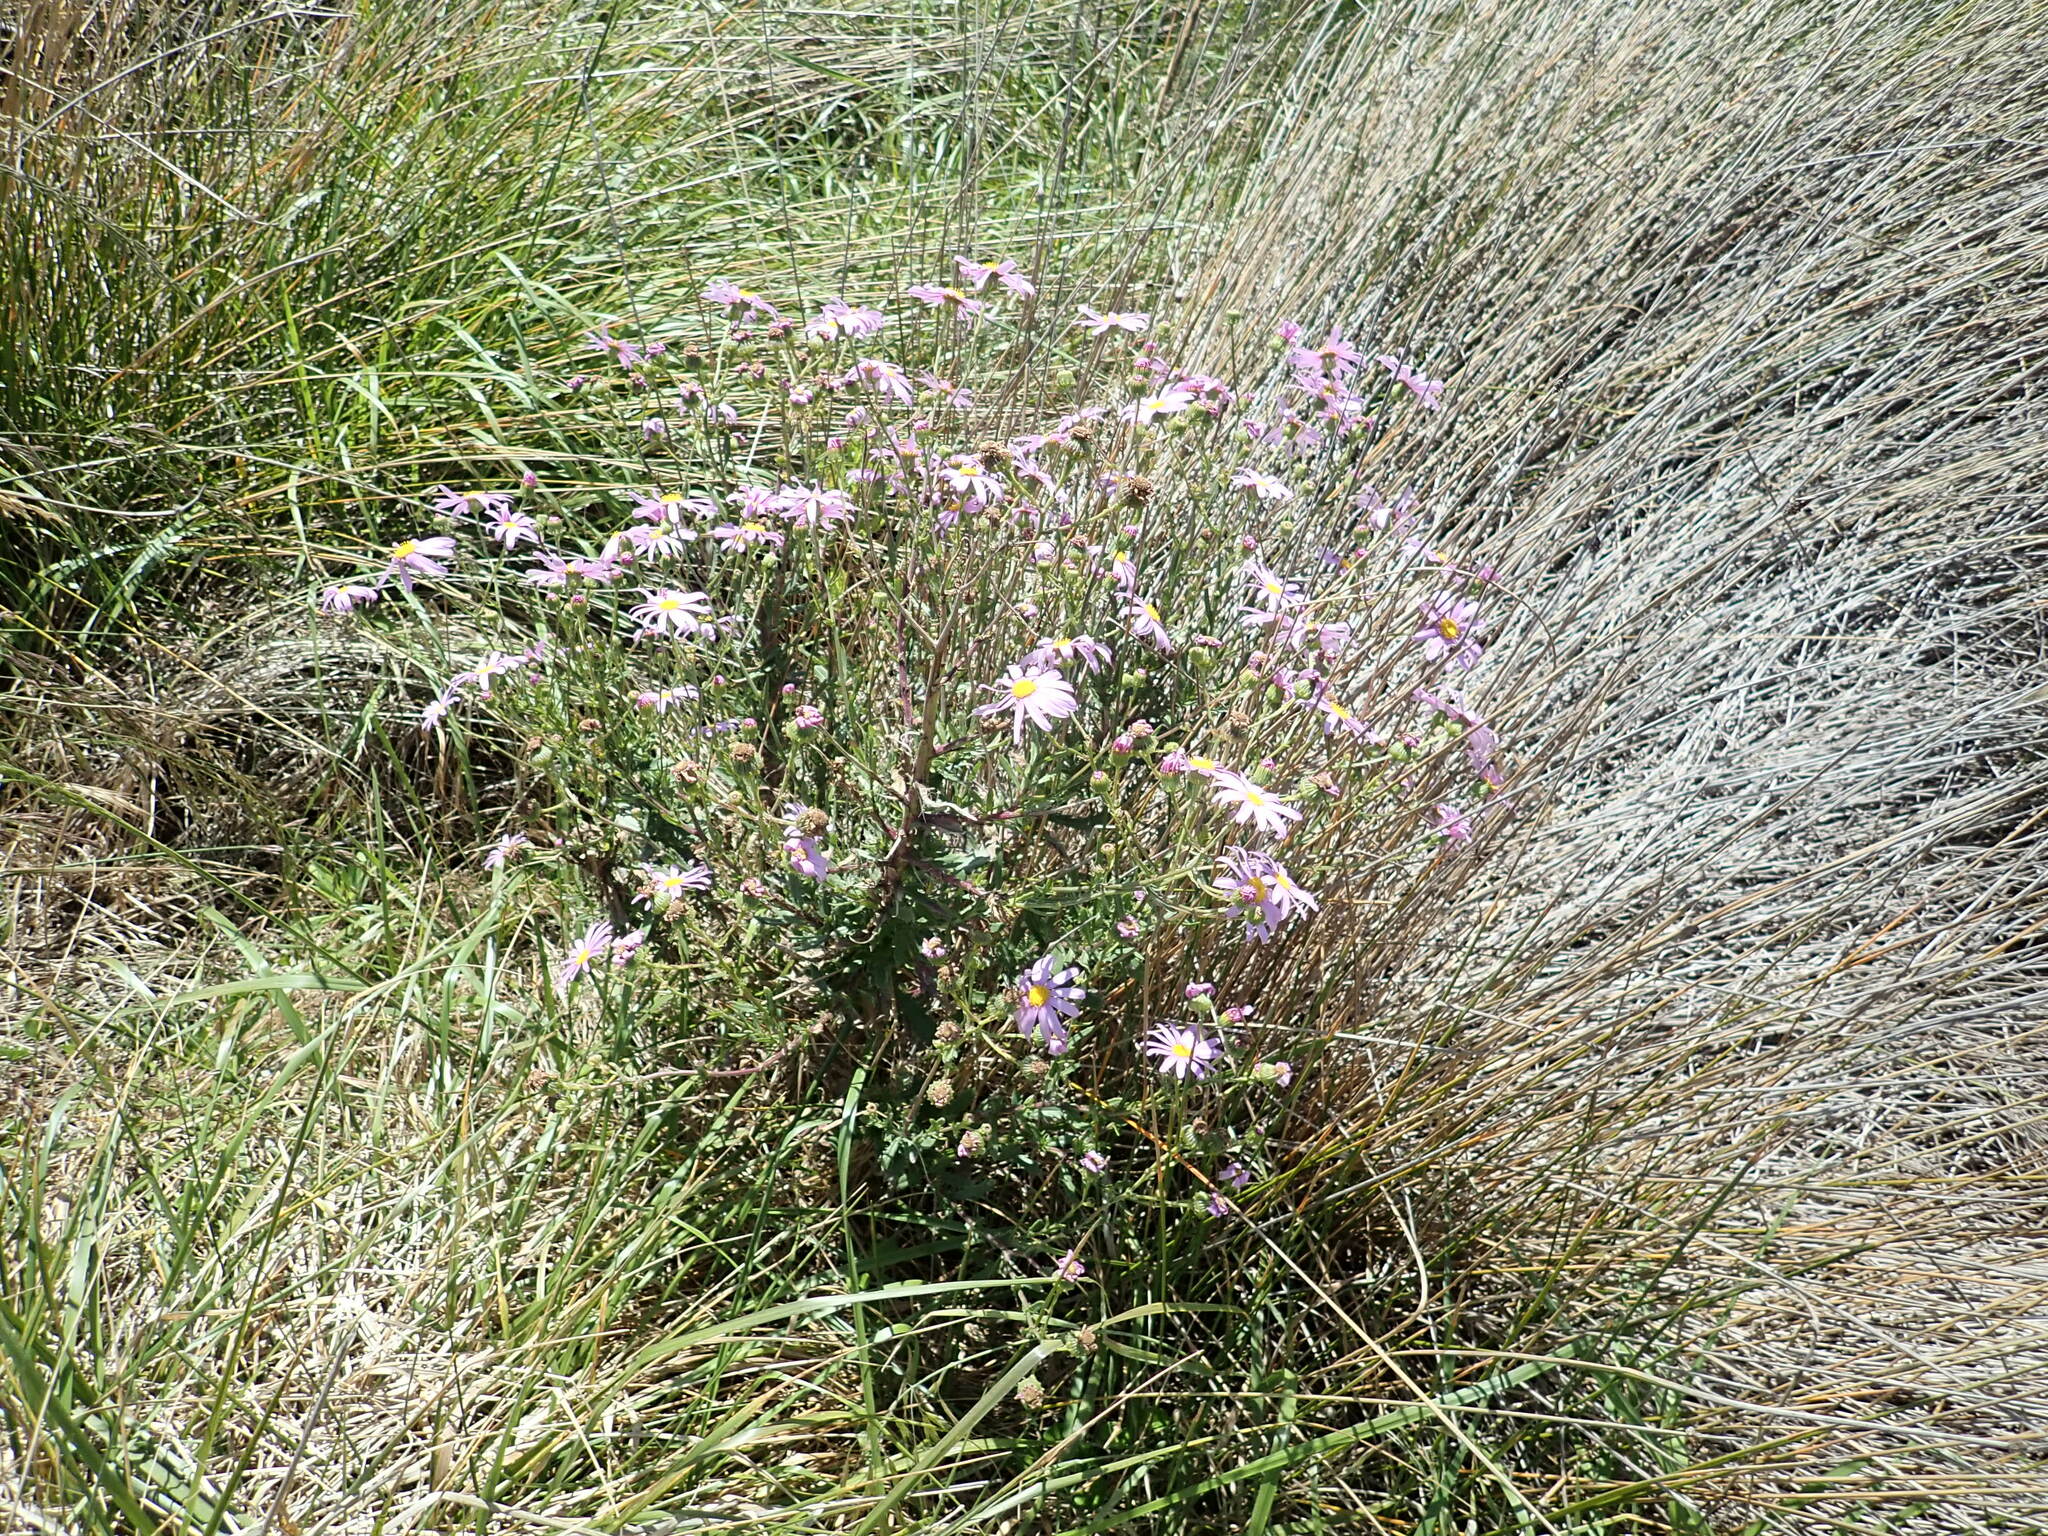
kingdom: Plantae
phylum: Tracheophyta
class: Magnoliopsida
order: Asterales
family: Asteraceae
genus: Senecio
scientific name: Senecio glastifolius
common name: Woad-leaved ragwort
